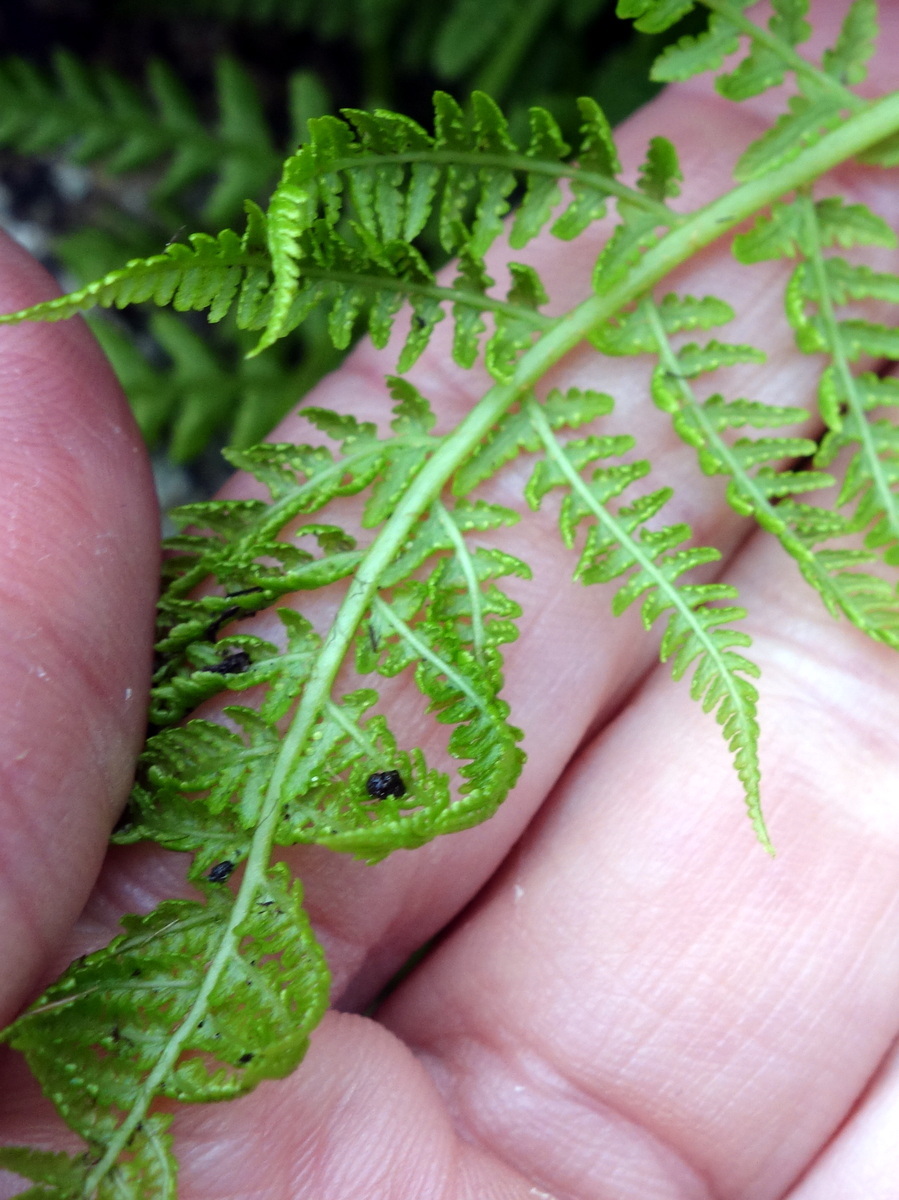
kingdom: Plantae
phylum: Tracheophyta
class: Polypodiopsida
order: Polypodiales
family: Athyriaceae
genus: Pseudathyrium
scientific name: Pseudathyrium alpestre
